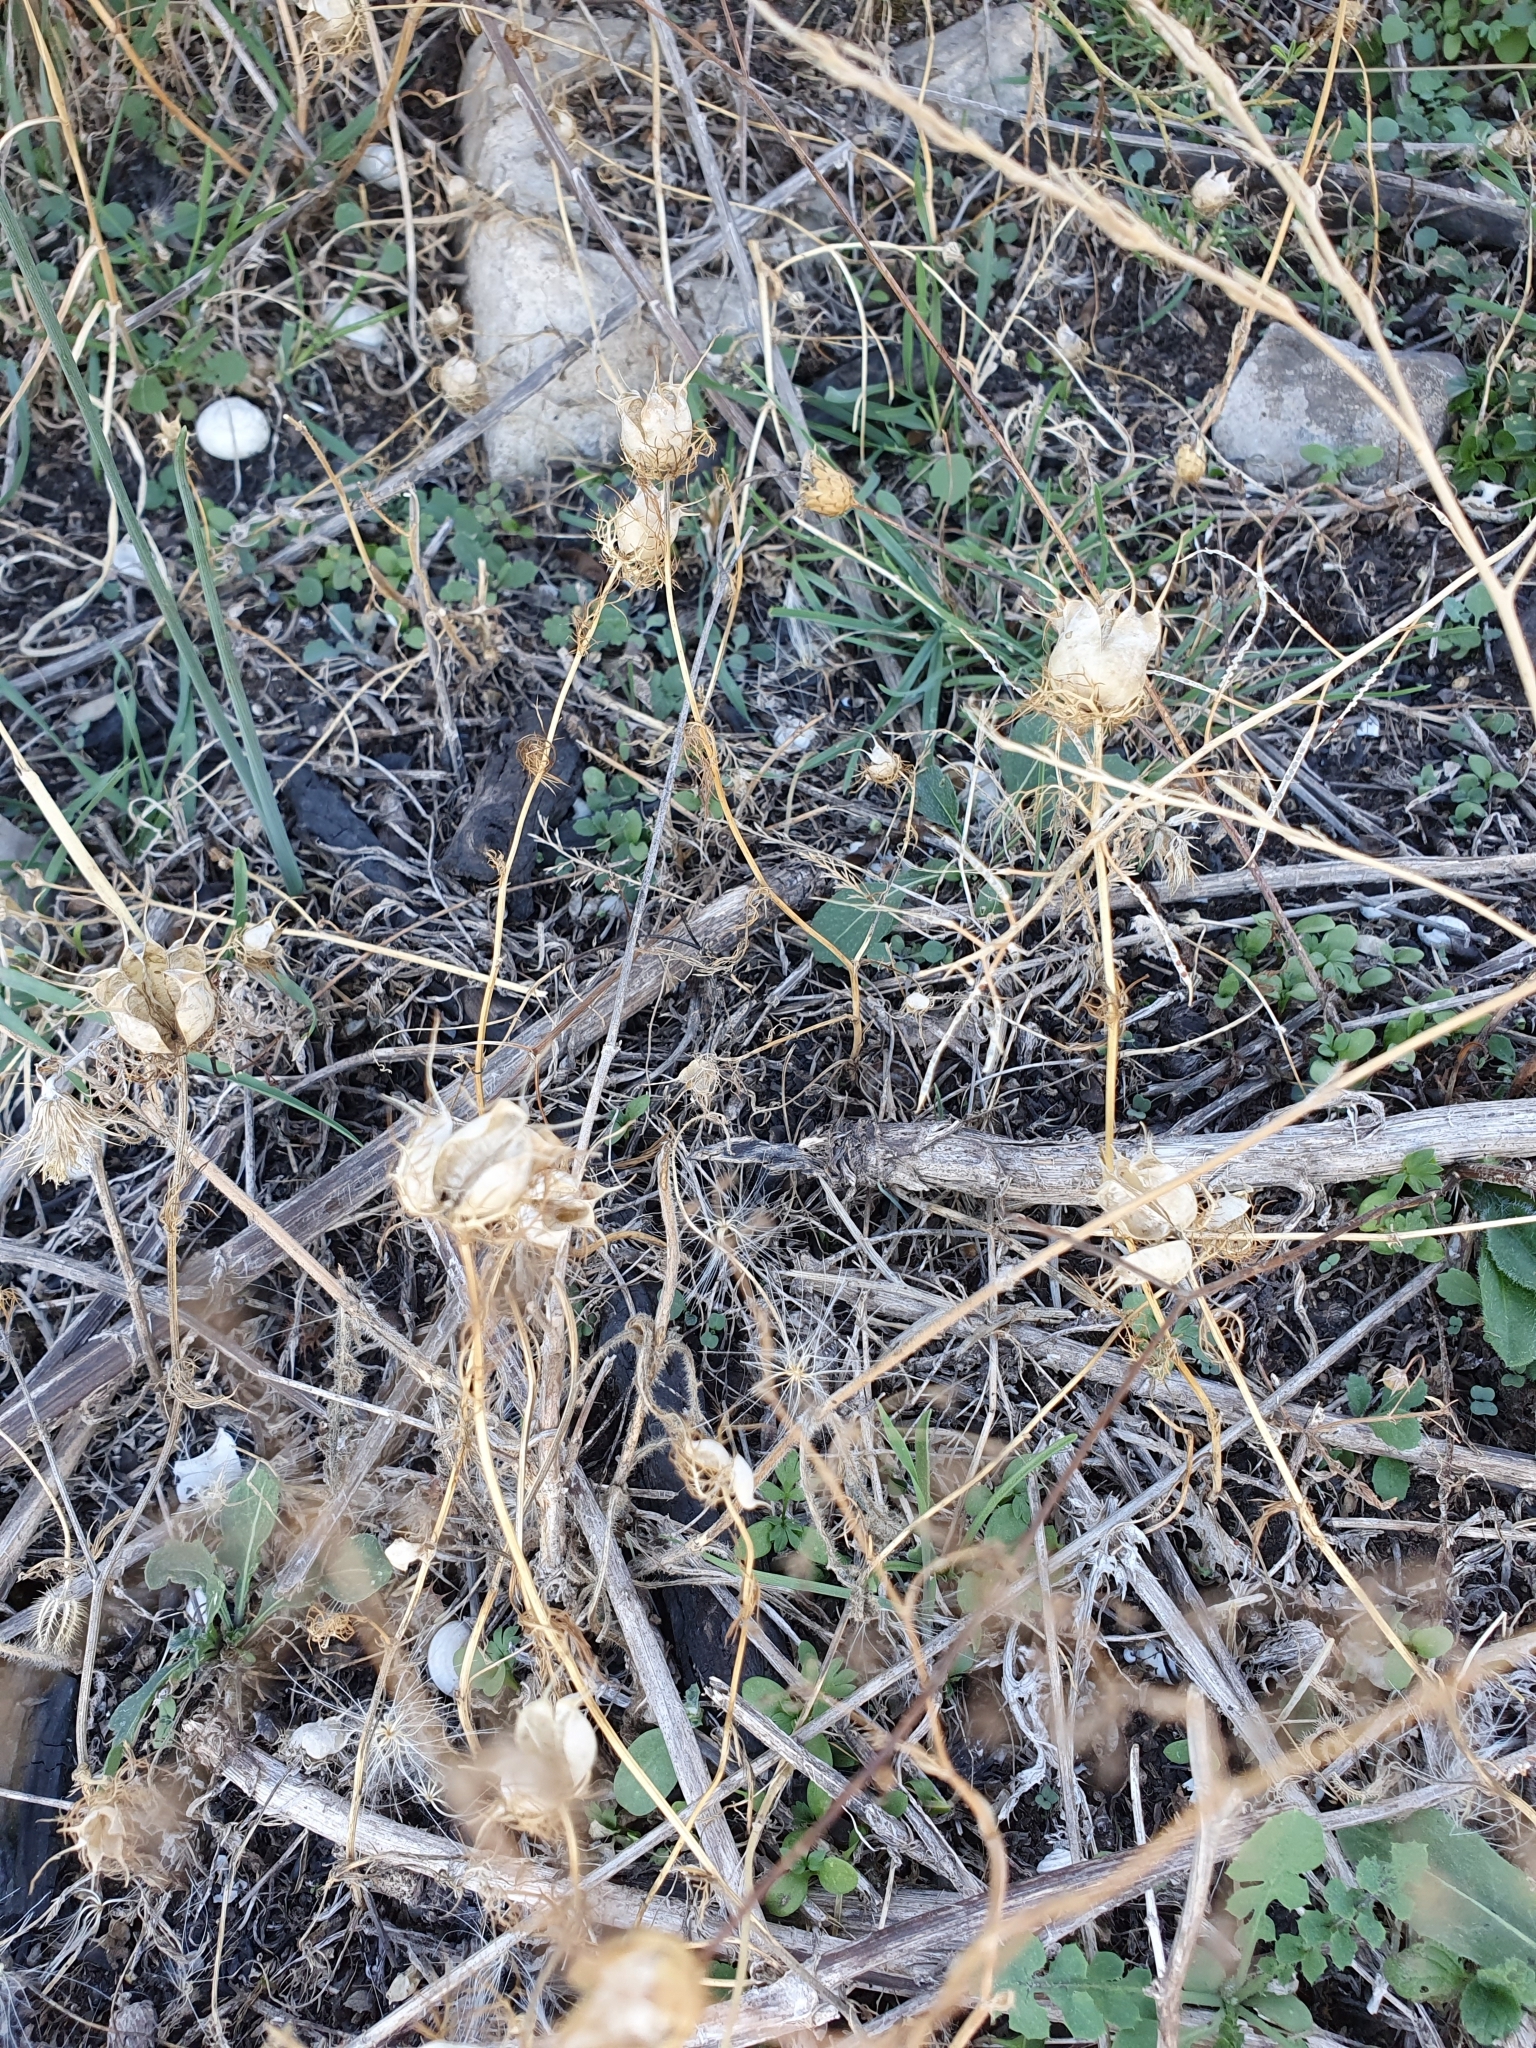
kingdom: Plantae
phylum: Tracheophyta
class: Magnoliopsida
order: Ranunculales
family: Ranunculaceae
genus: Nigella
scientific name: Nigella damascena
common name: Love-in-a-mist
